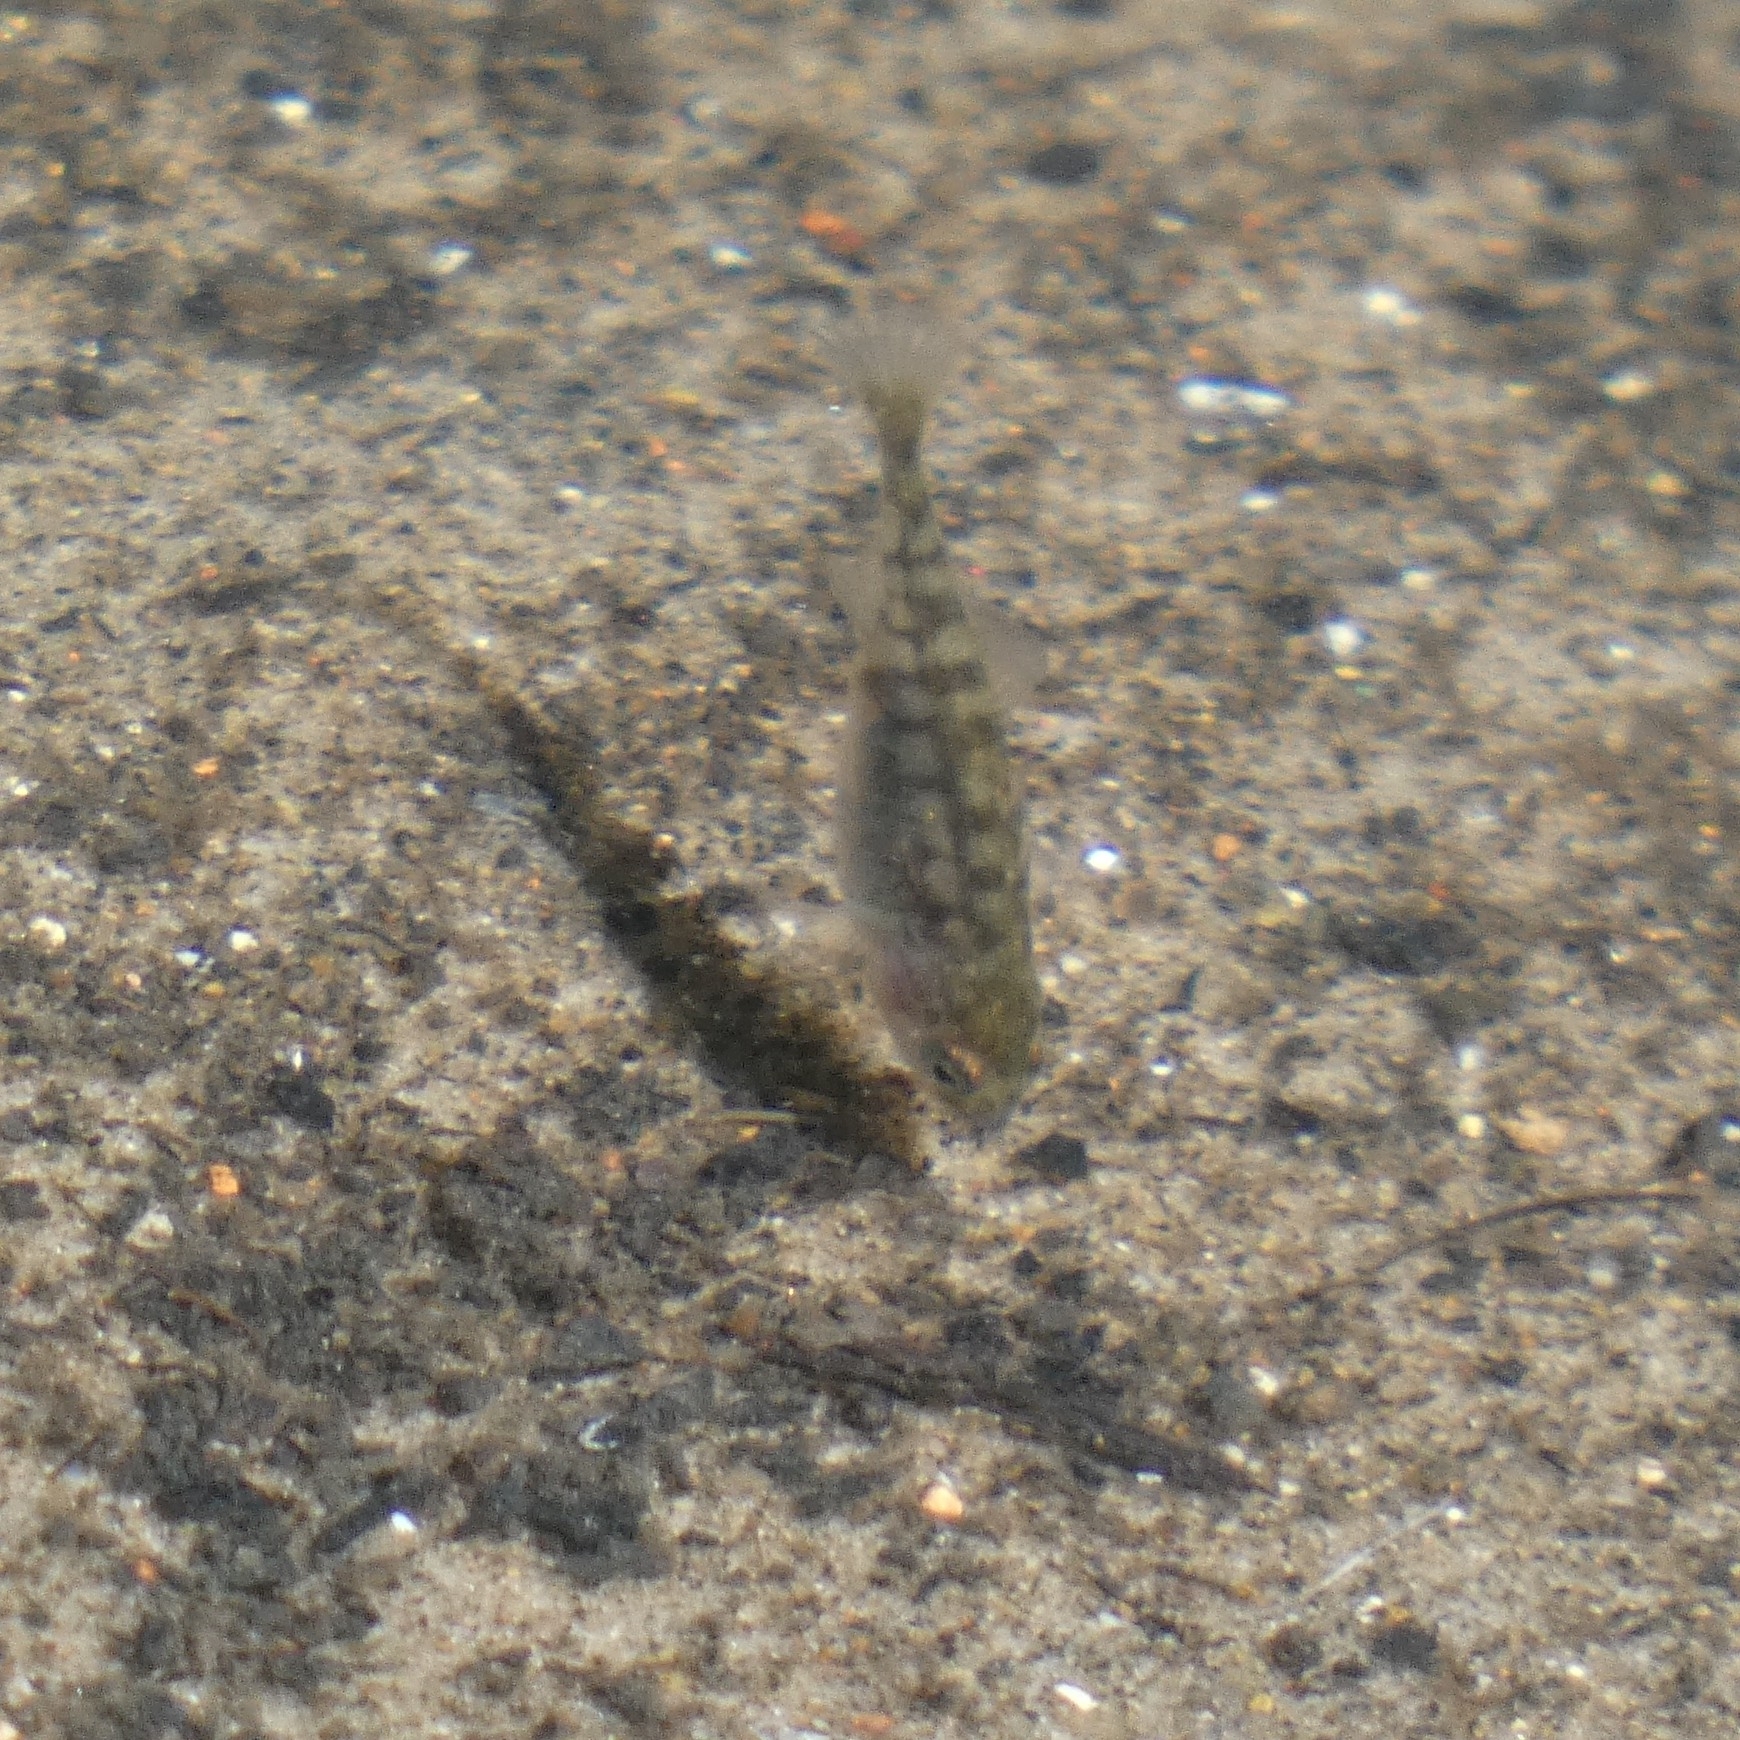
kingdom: Animalia
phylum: Chordata
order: Gasterosteiformes
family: Gasterosteidae
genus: Gasterosteus
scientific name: Gasterosteus aculeatus
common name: Three-spined stickleback
